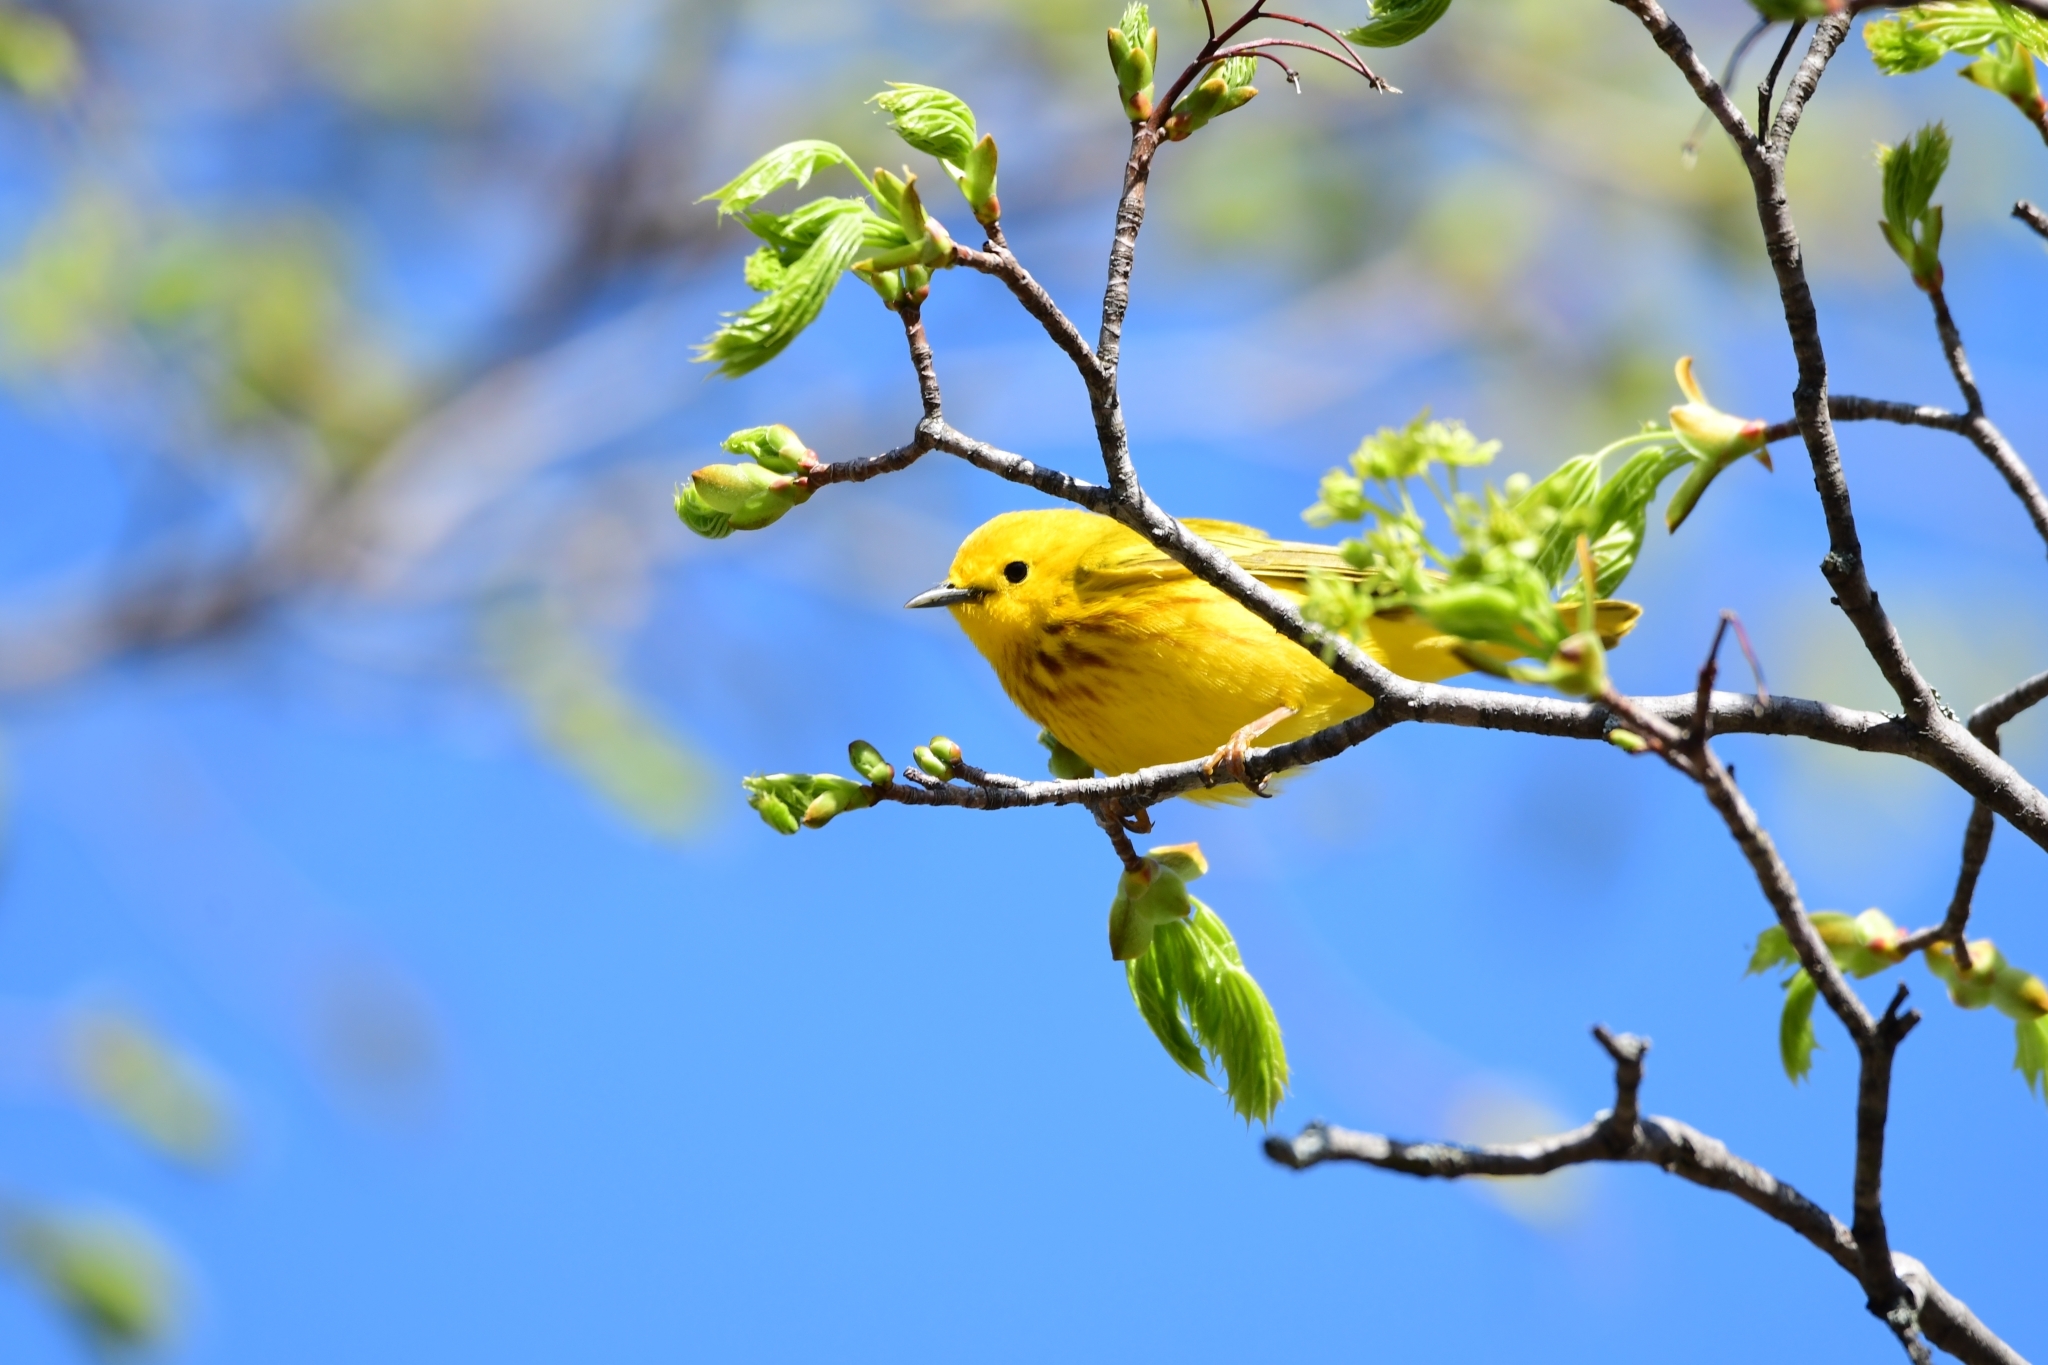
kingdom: Animalia
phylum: Chordata
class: Aves
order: Passeriformes
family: Parulidae
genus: Setophaga
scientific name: Setophaga petechia
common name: Yellow warbler
